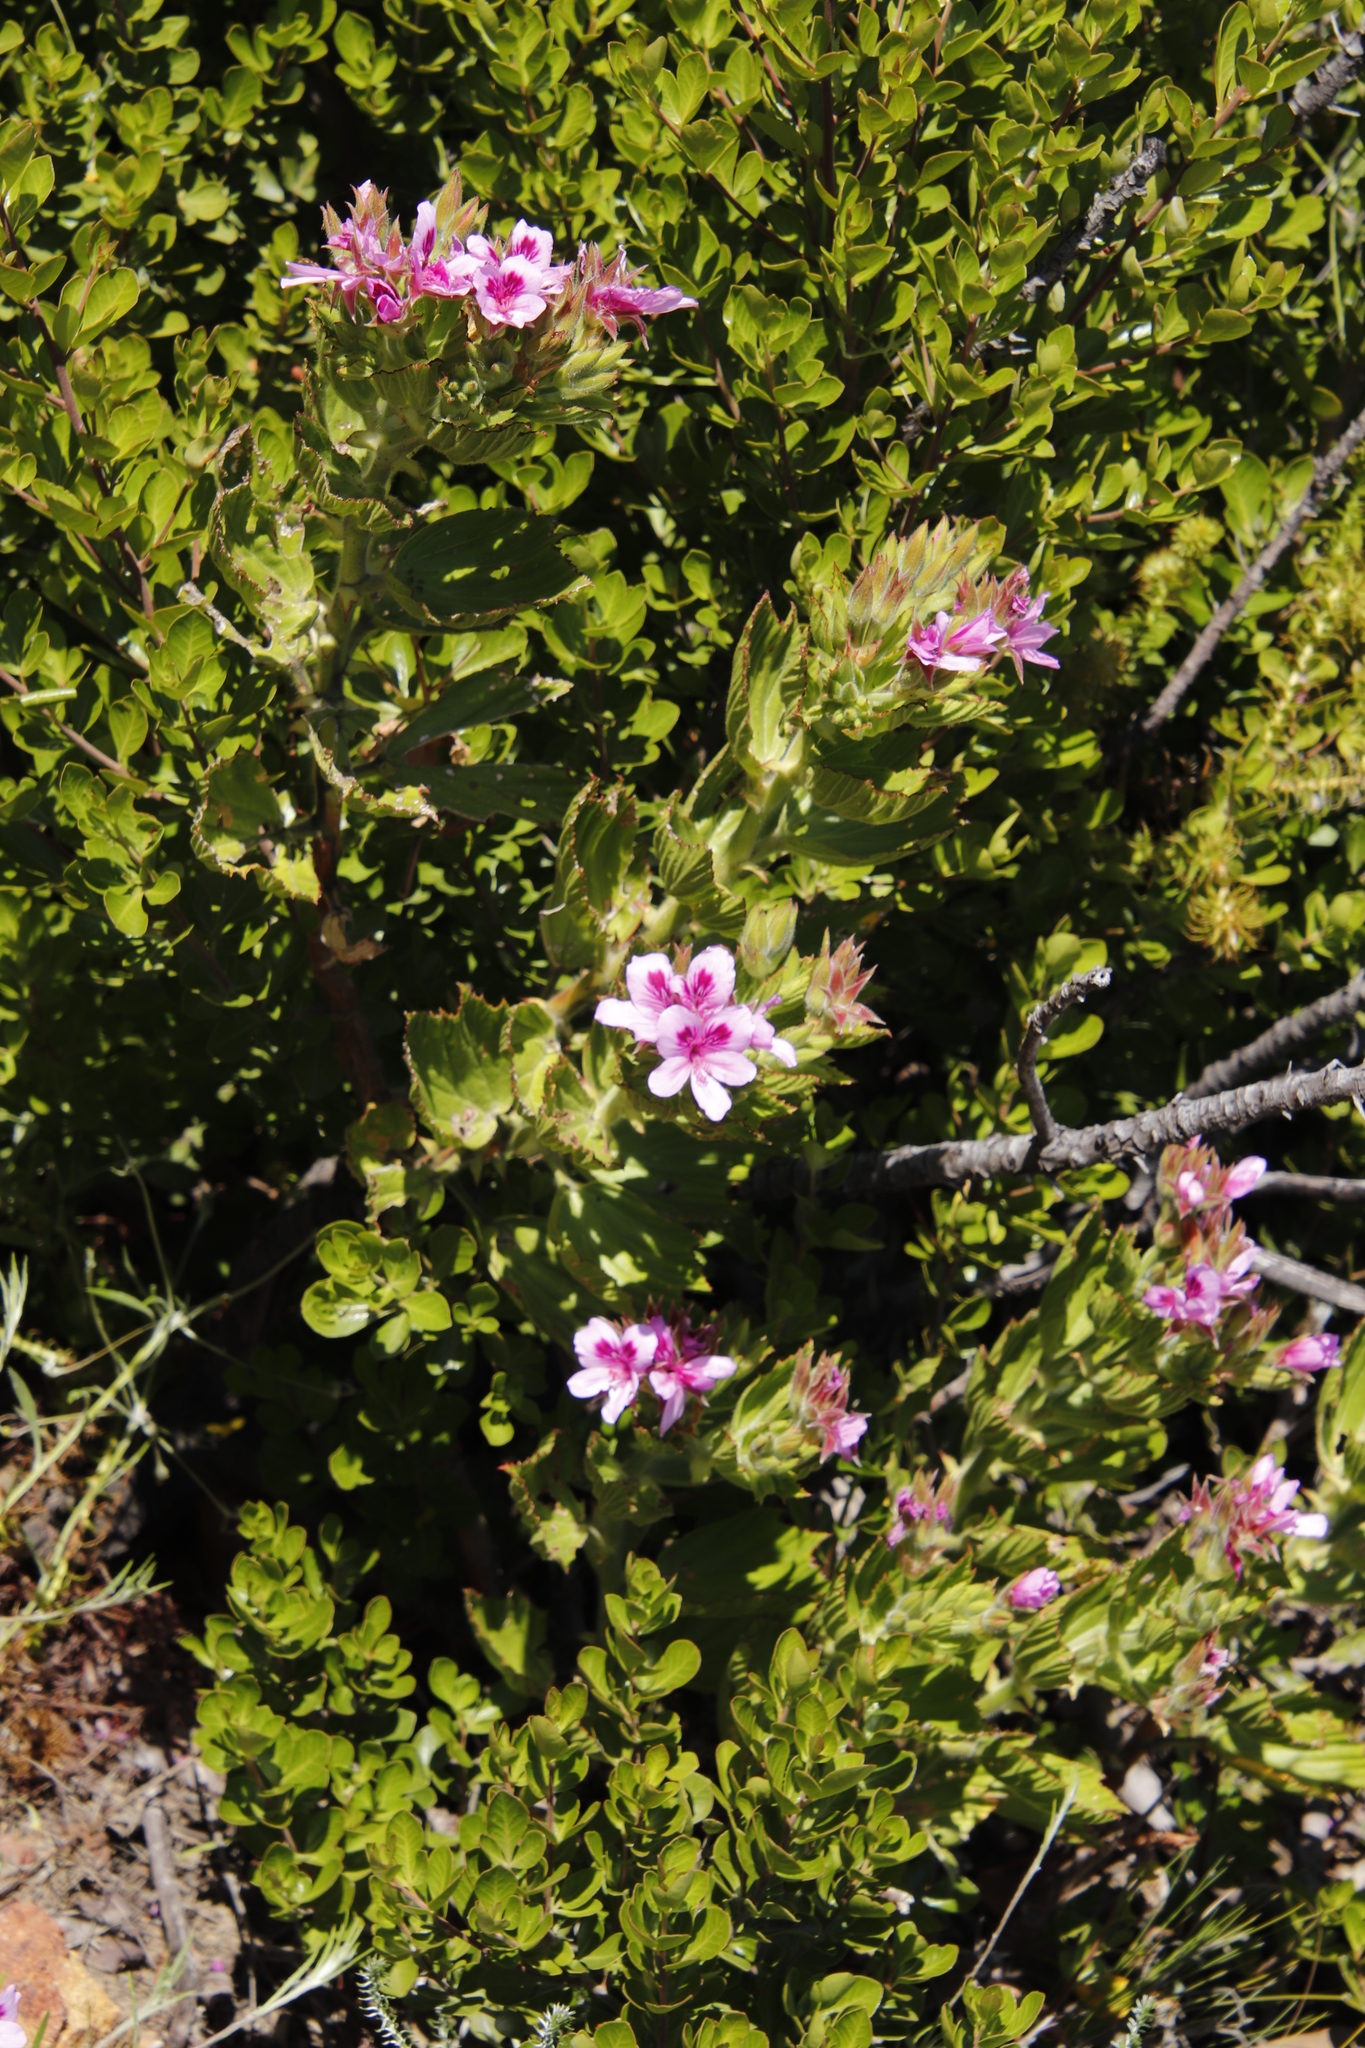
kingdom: Plantae
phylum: Tracheophyta
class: Magnoliopsida
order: Geraniales
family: Geraniaceae
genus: Pelargonium
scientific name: Pelargonium cucullatum
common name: Tree pelargonium
